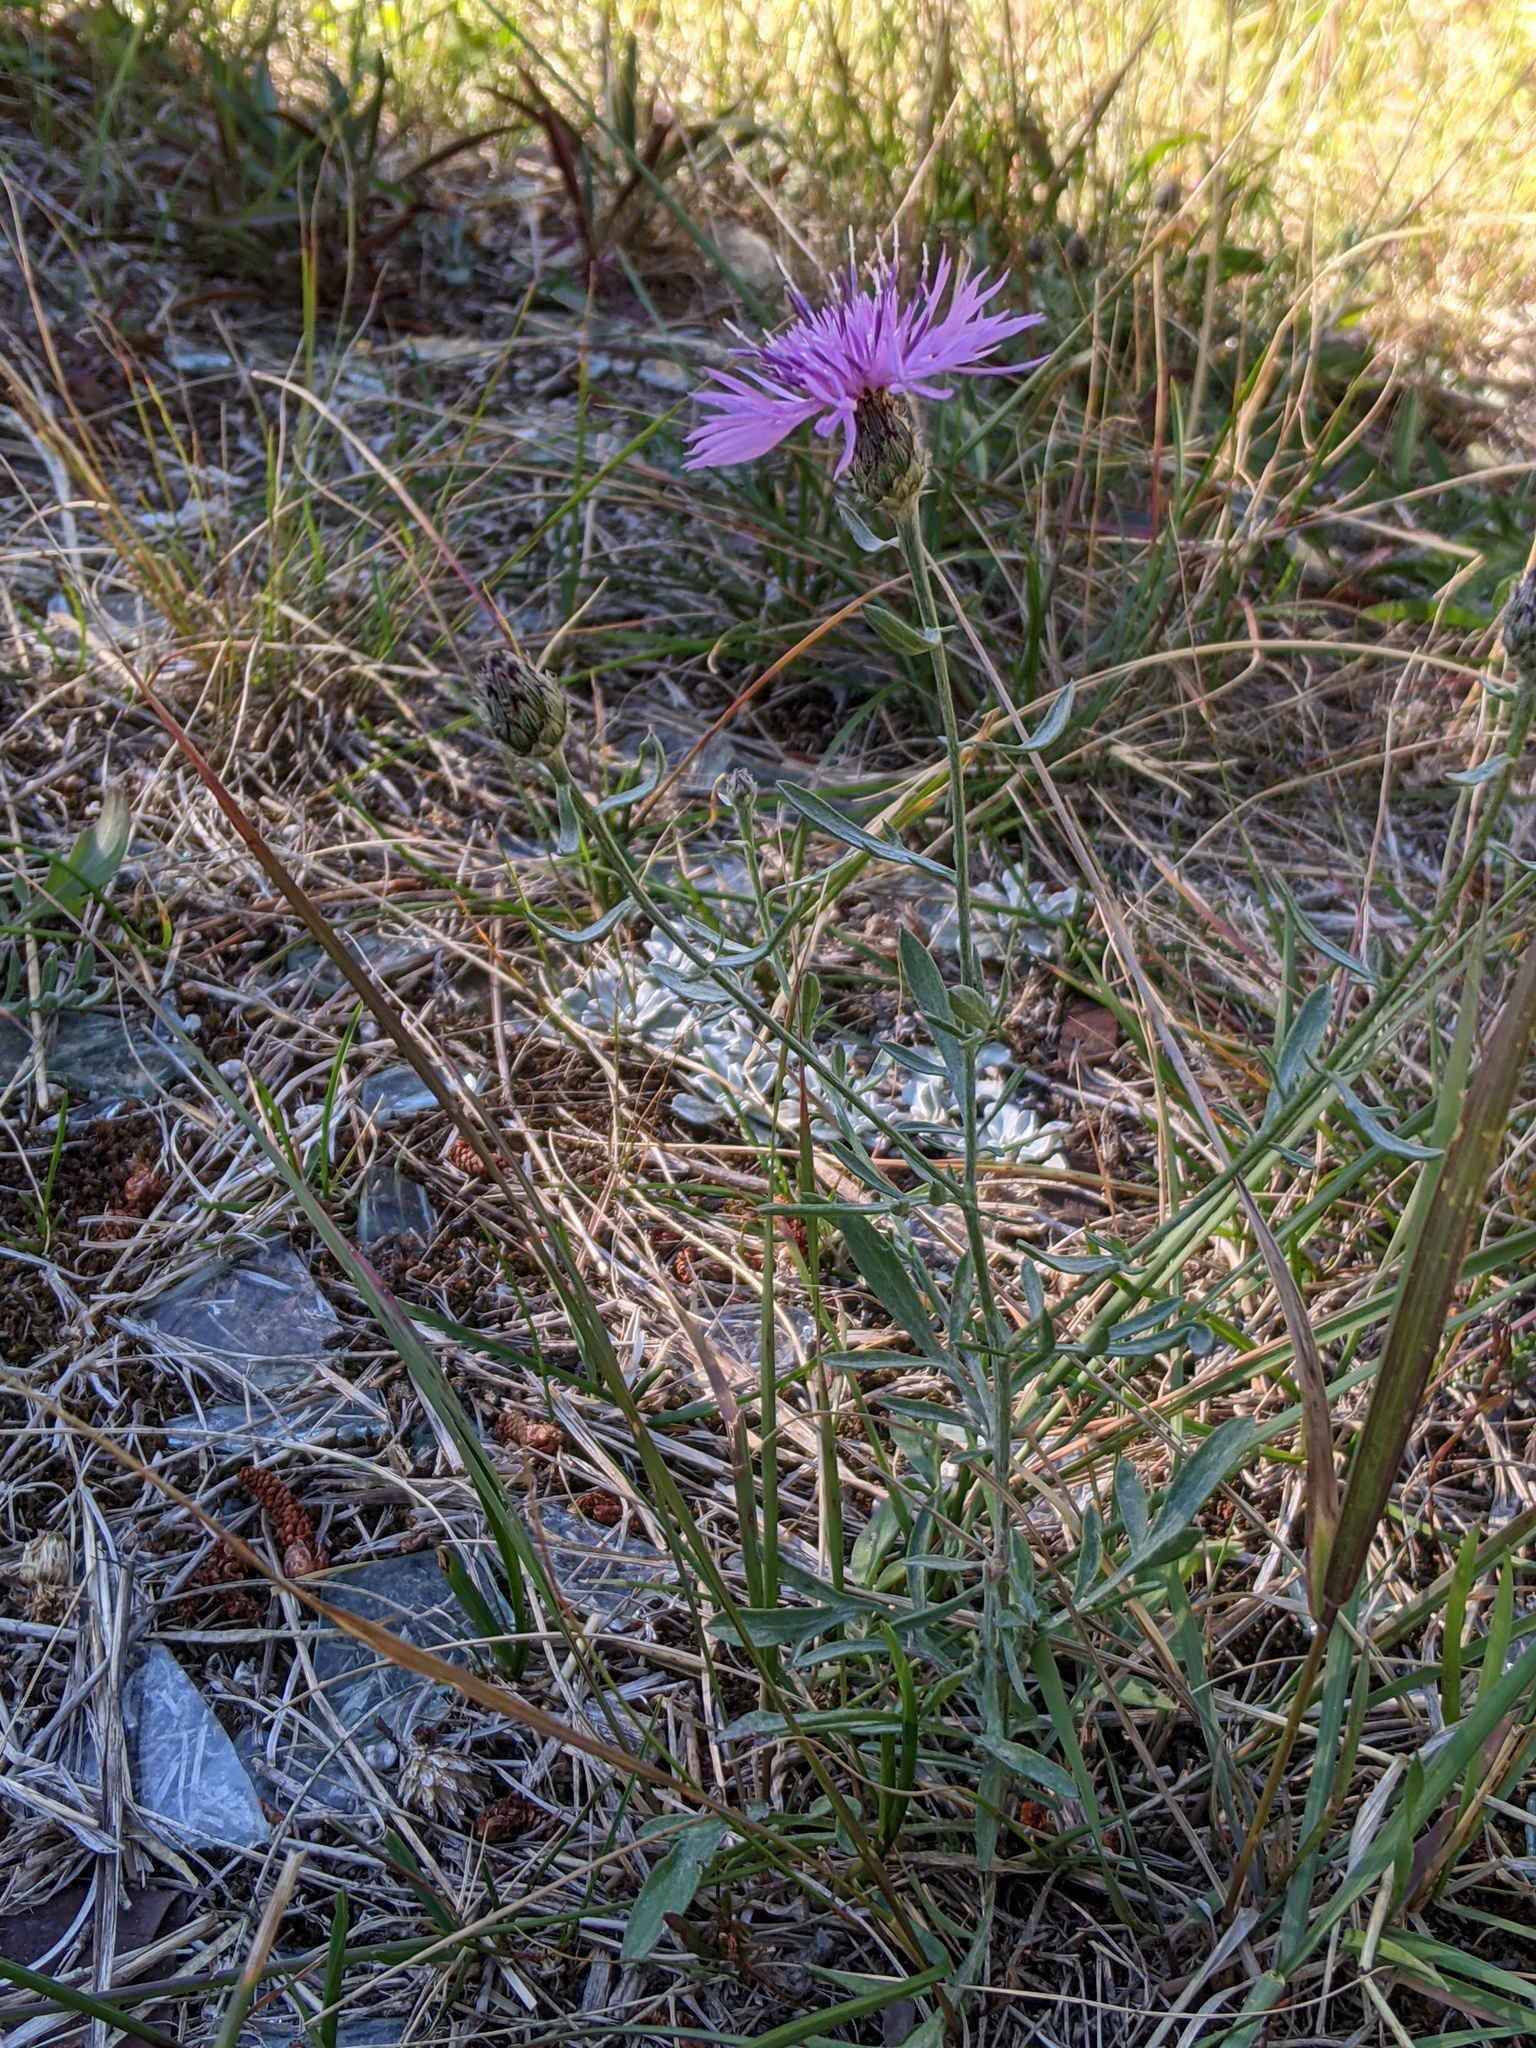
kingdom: Plantae
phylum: Tracheophyta
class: Magnoliopsida
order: Asterales
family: Asteraceae
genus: Centaurea
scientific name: Centaurea stoebe
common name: Spotted knapweed
